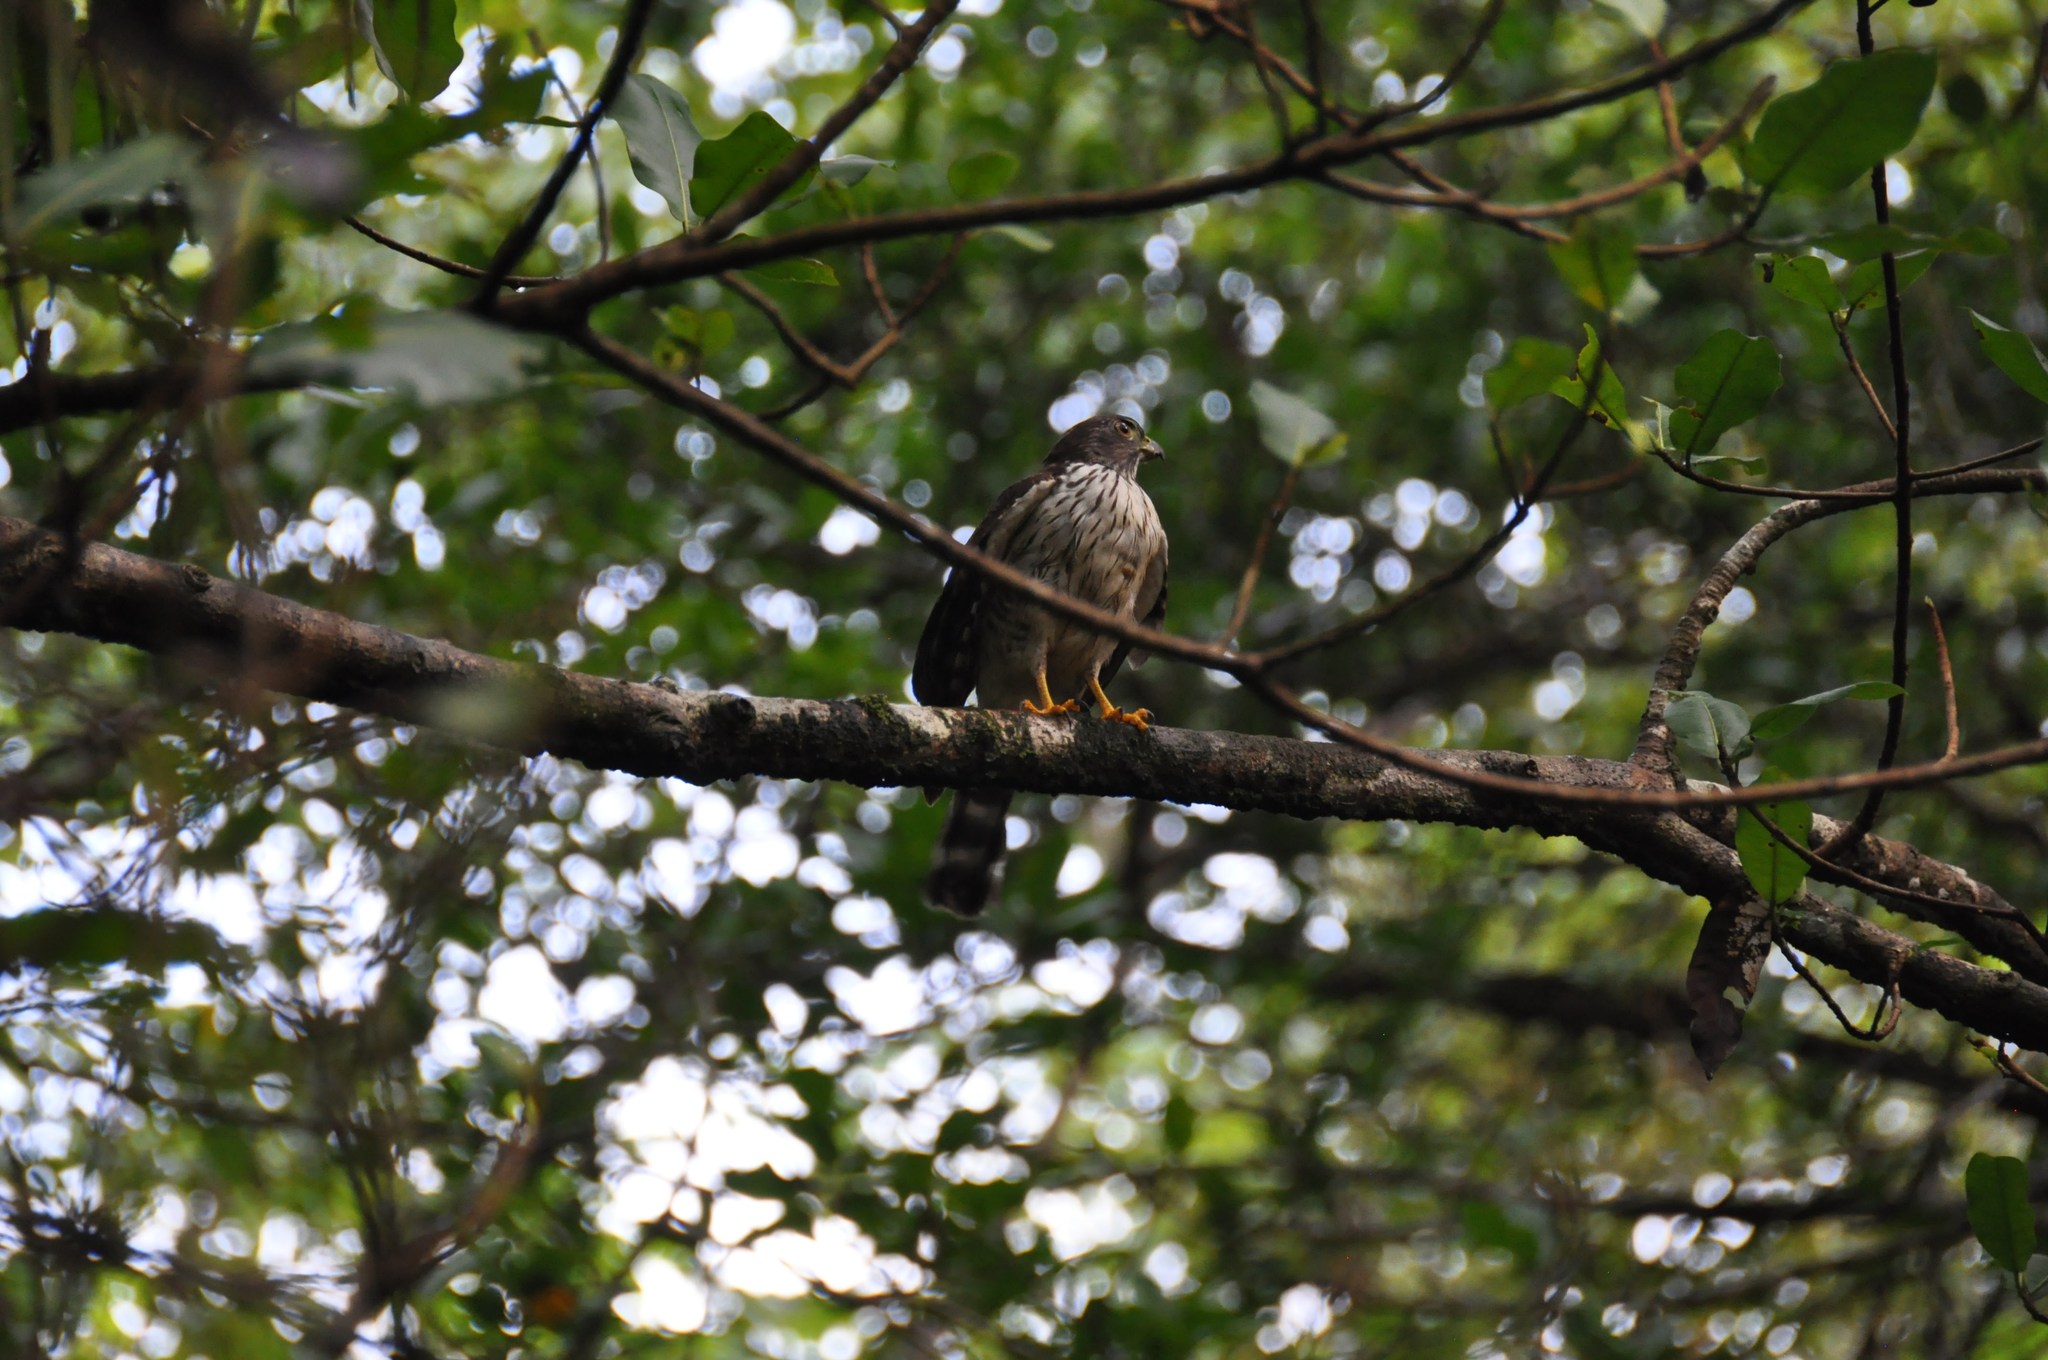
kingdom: Animalia
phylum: Chordata
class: Aves
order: Accipitriformes
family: Accipitridae
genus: Harpagus
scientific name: Harpagus bidentatus
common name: Double-toothed kite
